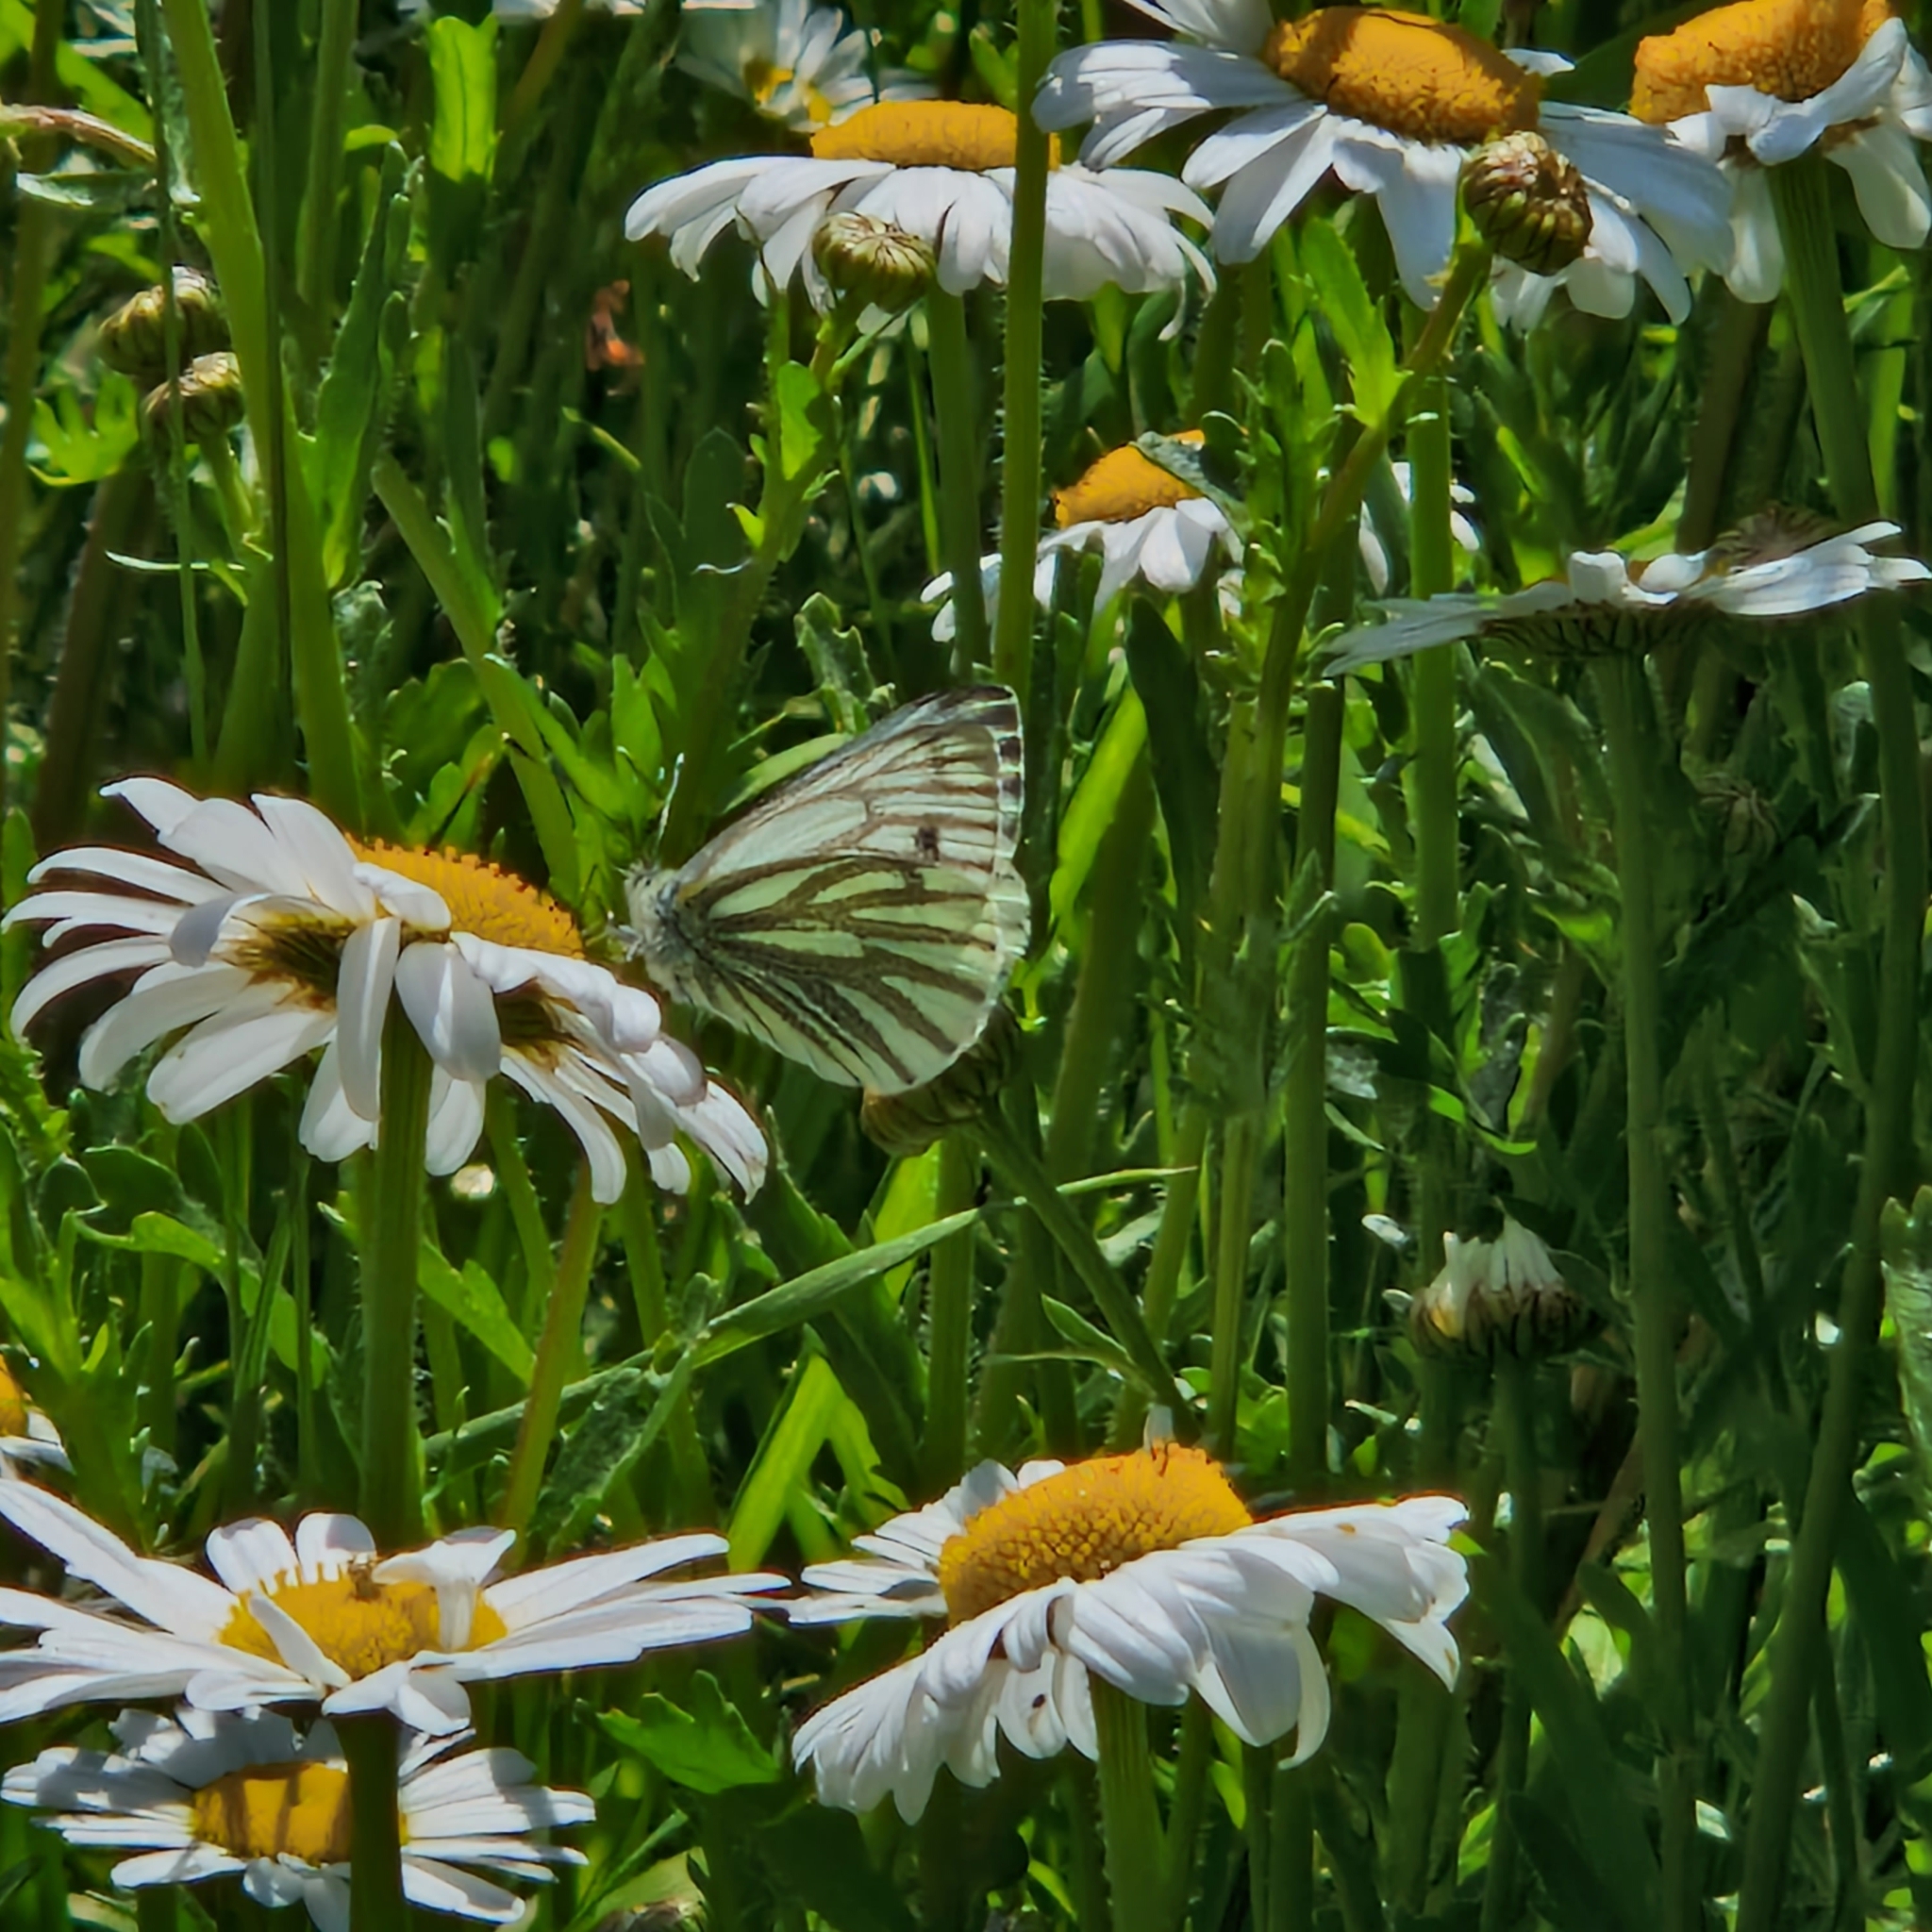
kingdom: Animalia
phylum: Arthropoda
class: Insecta
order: Lepidoptera
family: Pieridae
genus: Pieris
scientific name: Pieris napi
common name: Green-veined white
